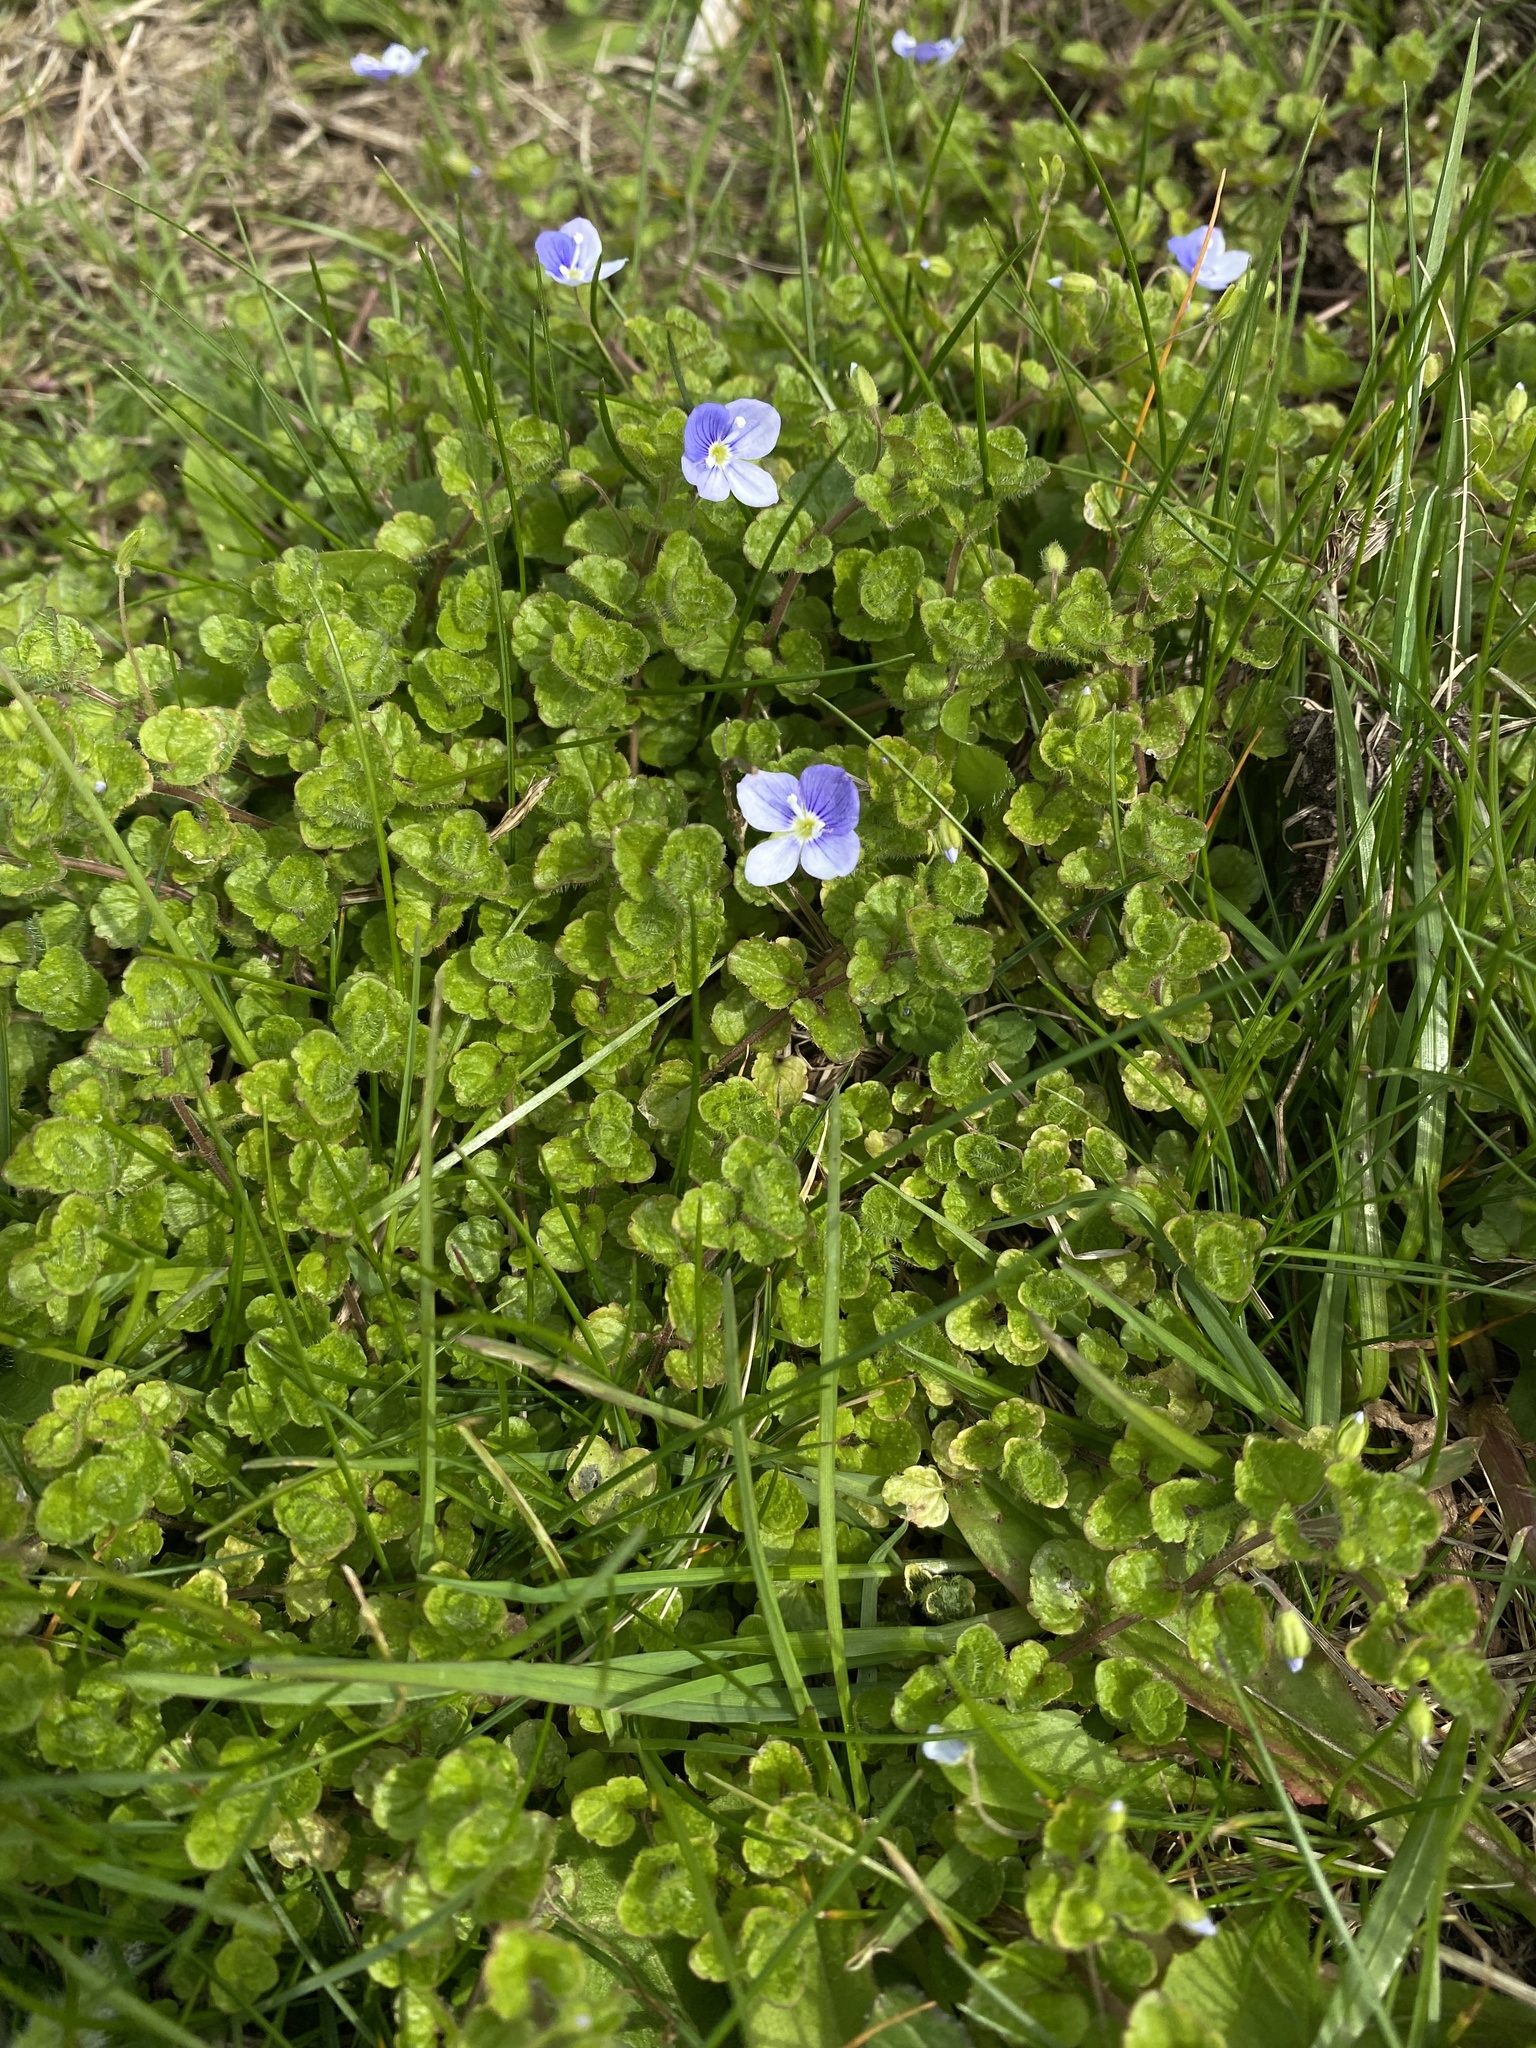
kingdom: Plantae
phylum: Tracheophyta
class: Magnoliopsida
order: Lamiales
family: Plantaginaceae
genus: Veronica
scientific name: Veronica filiformis
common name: Slender speedwell
